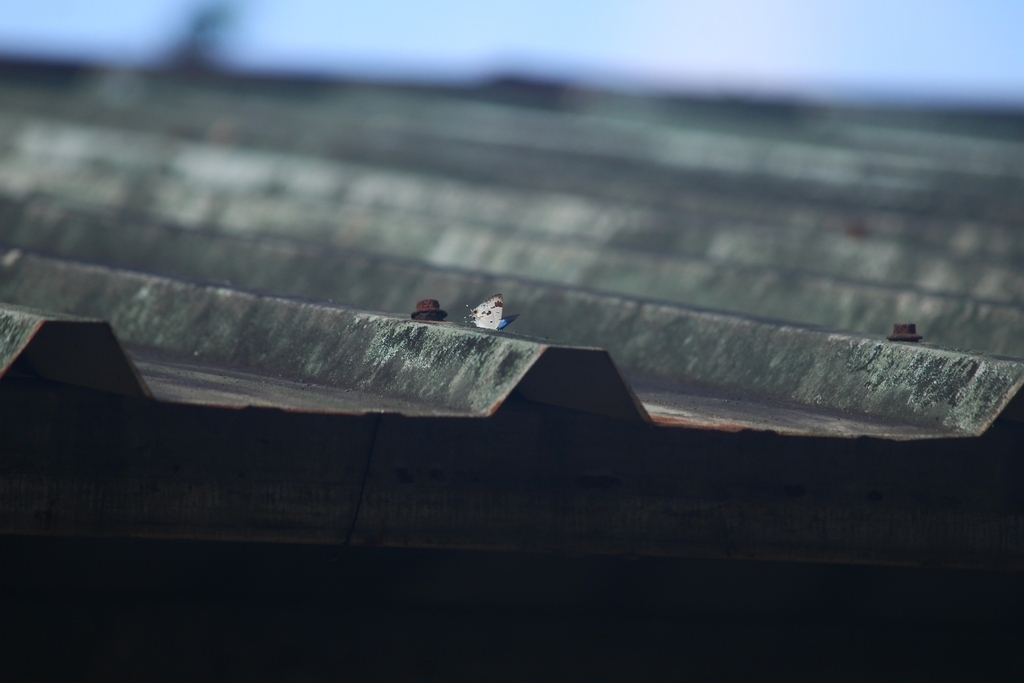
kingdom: Animalia
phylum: Arthropoda
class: Insecta
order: Lepidoptera
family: Lycaenidae
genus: Chliaria
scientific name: Chliaria othona
